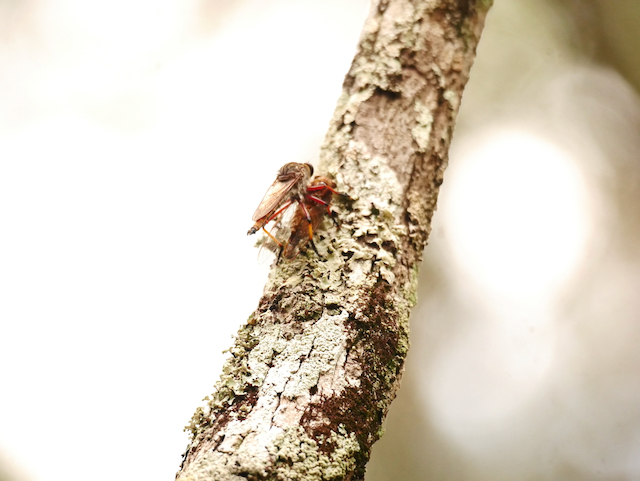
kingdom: Animalia
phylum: Arthropoda
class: Insecta
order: Diptera
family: Asilidae
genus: Colepia
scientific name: Colepia rufiventris
